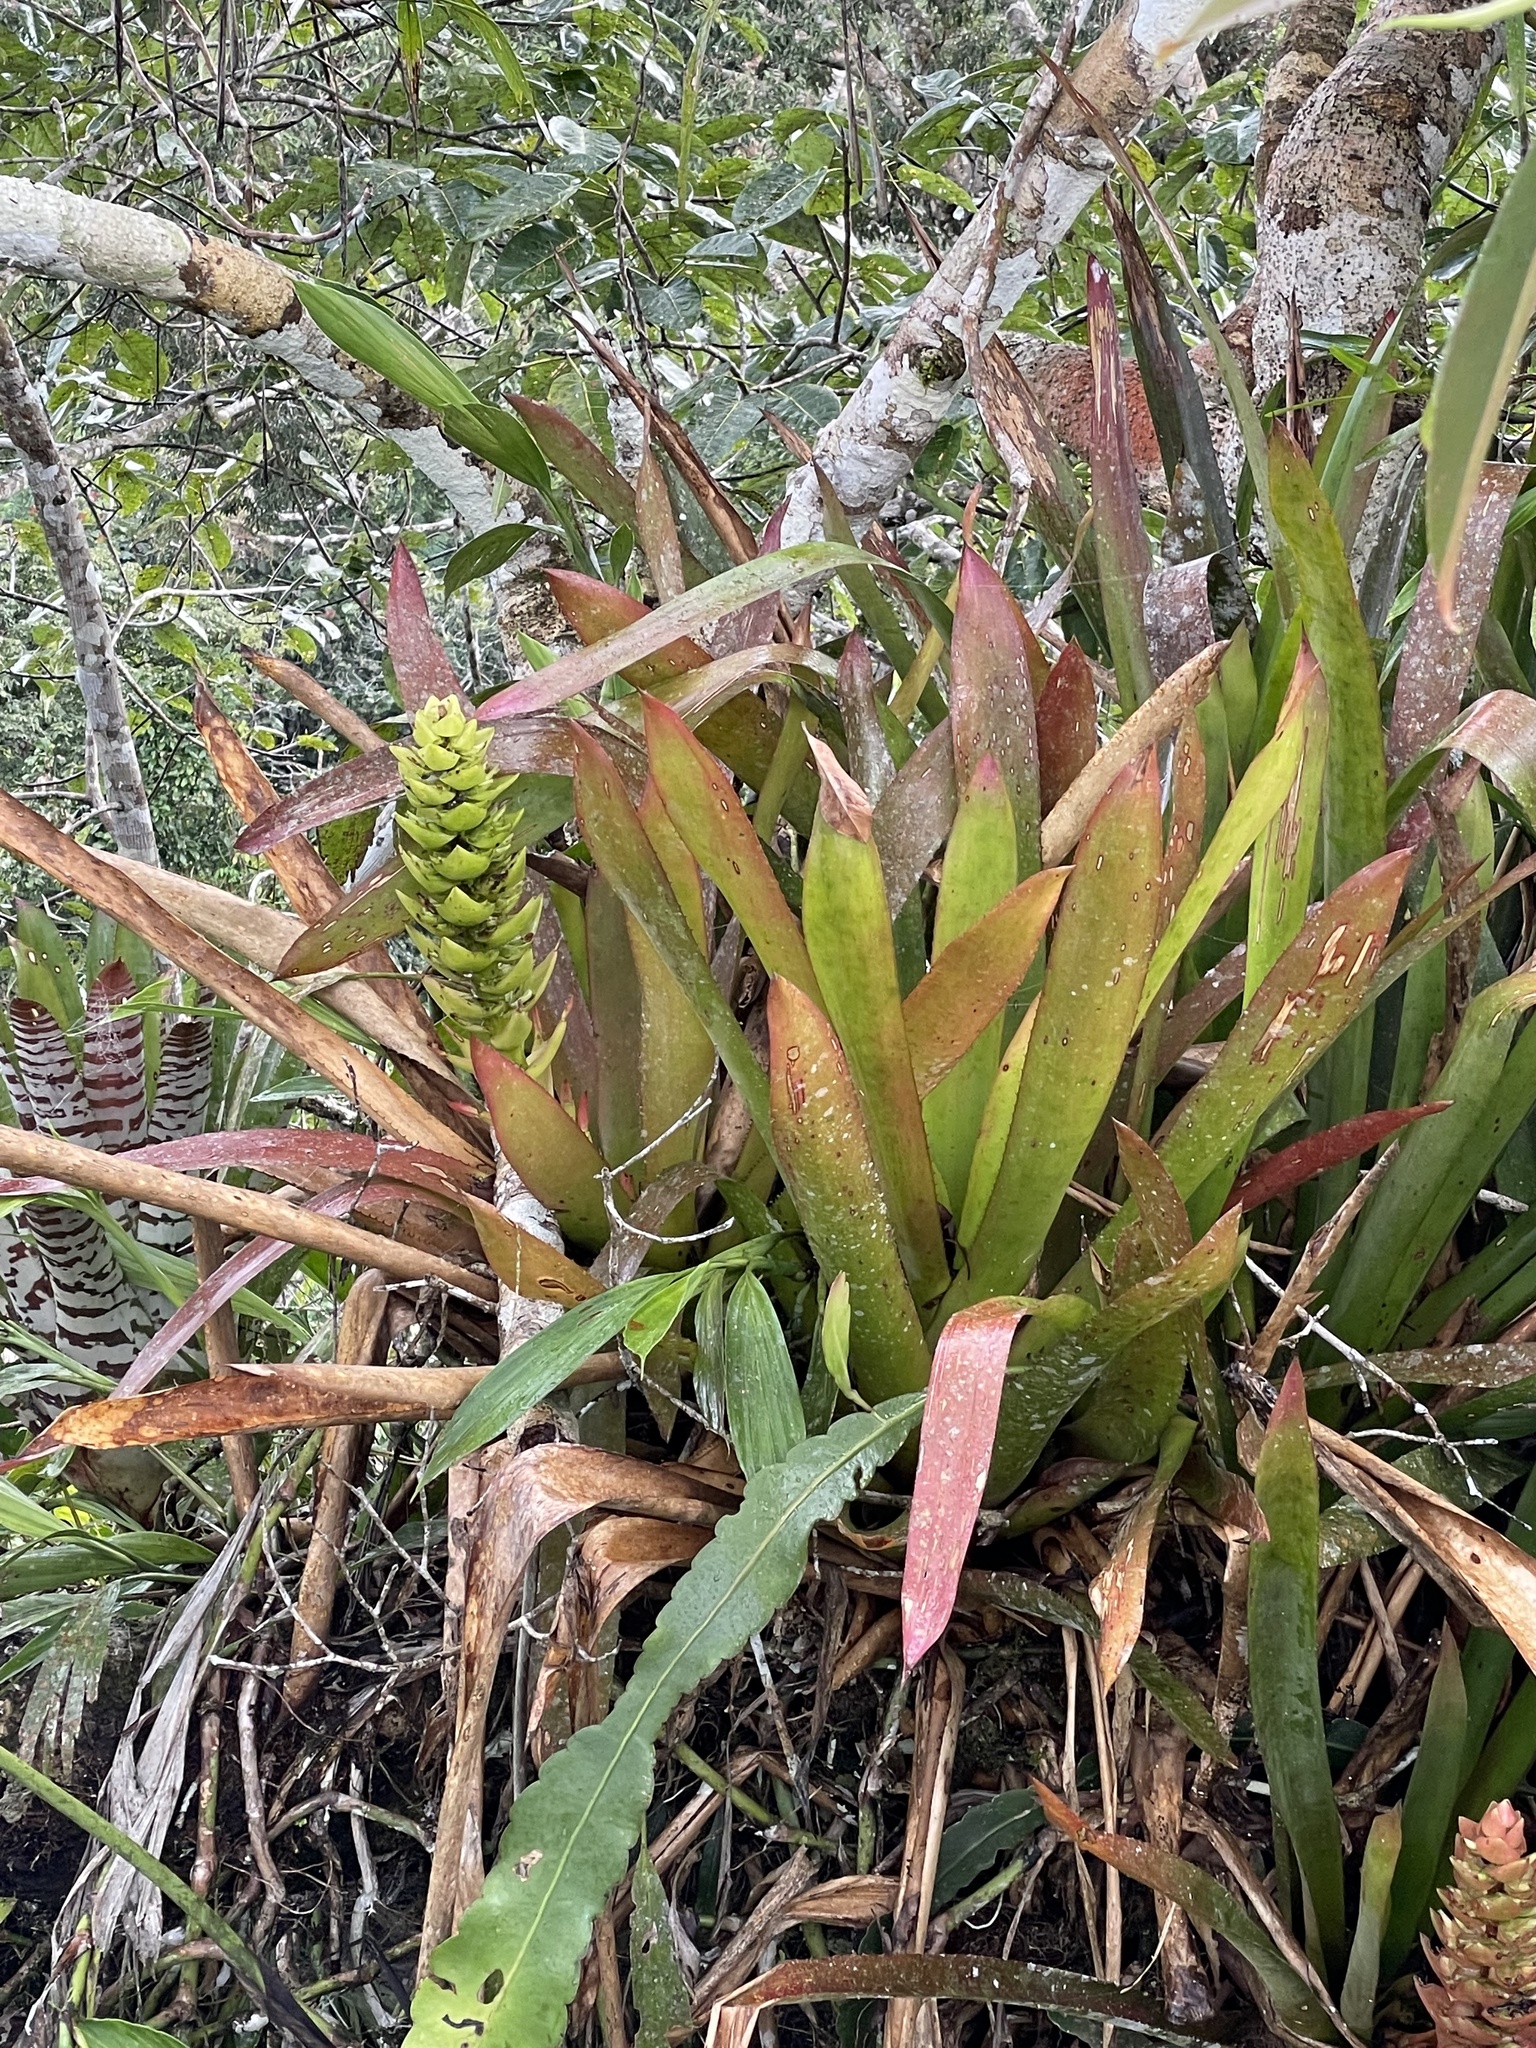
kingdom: Plantae
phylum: Tracheophyta
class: Liliopsida
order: Poales
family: Bromeliaceae
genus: Aechmea
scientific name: Aechmea hoppii
